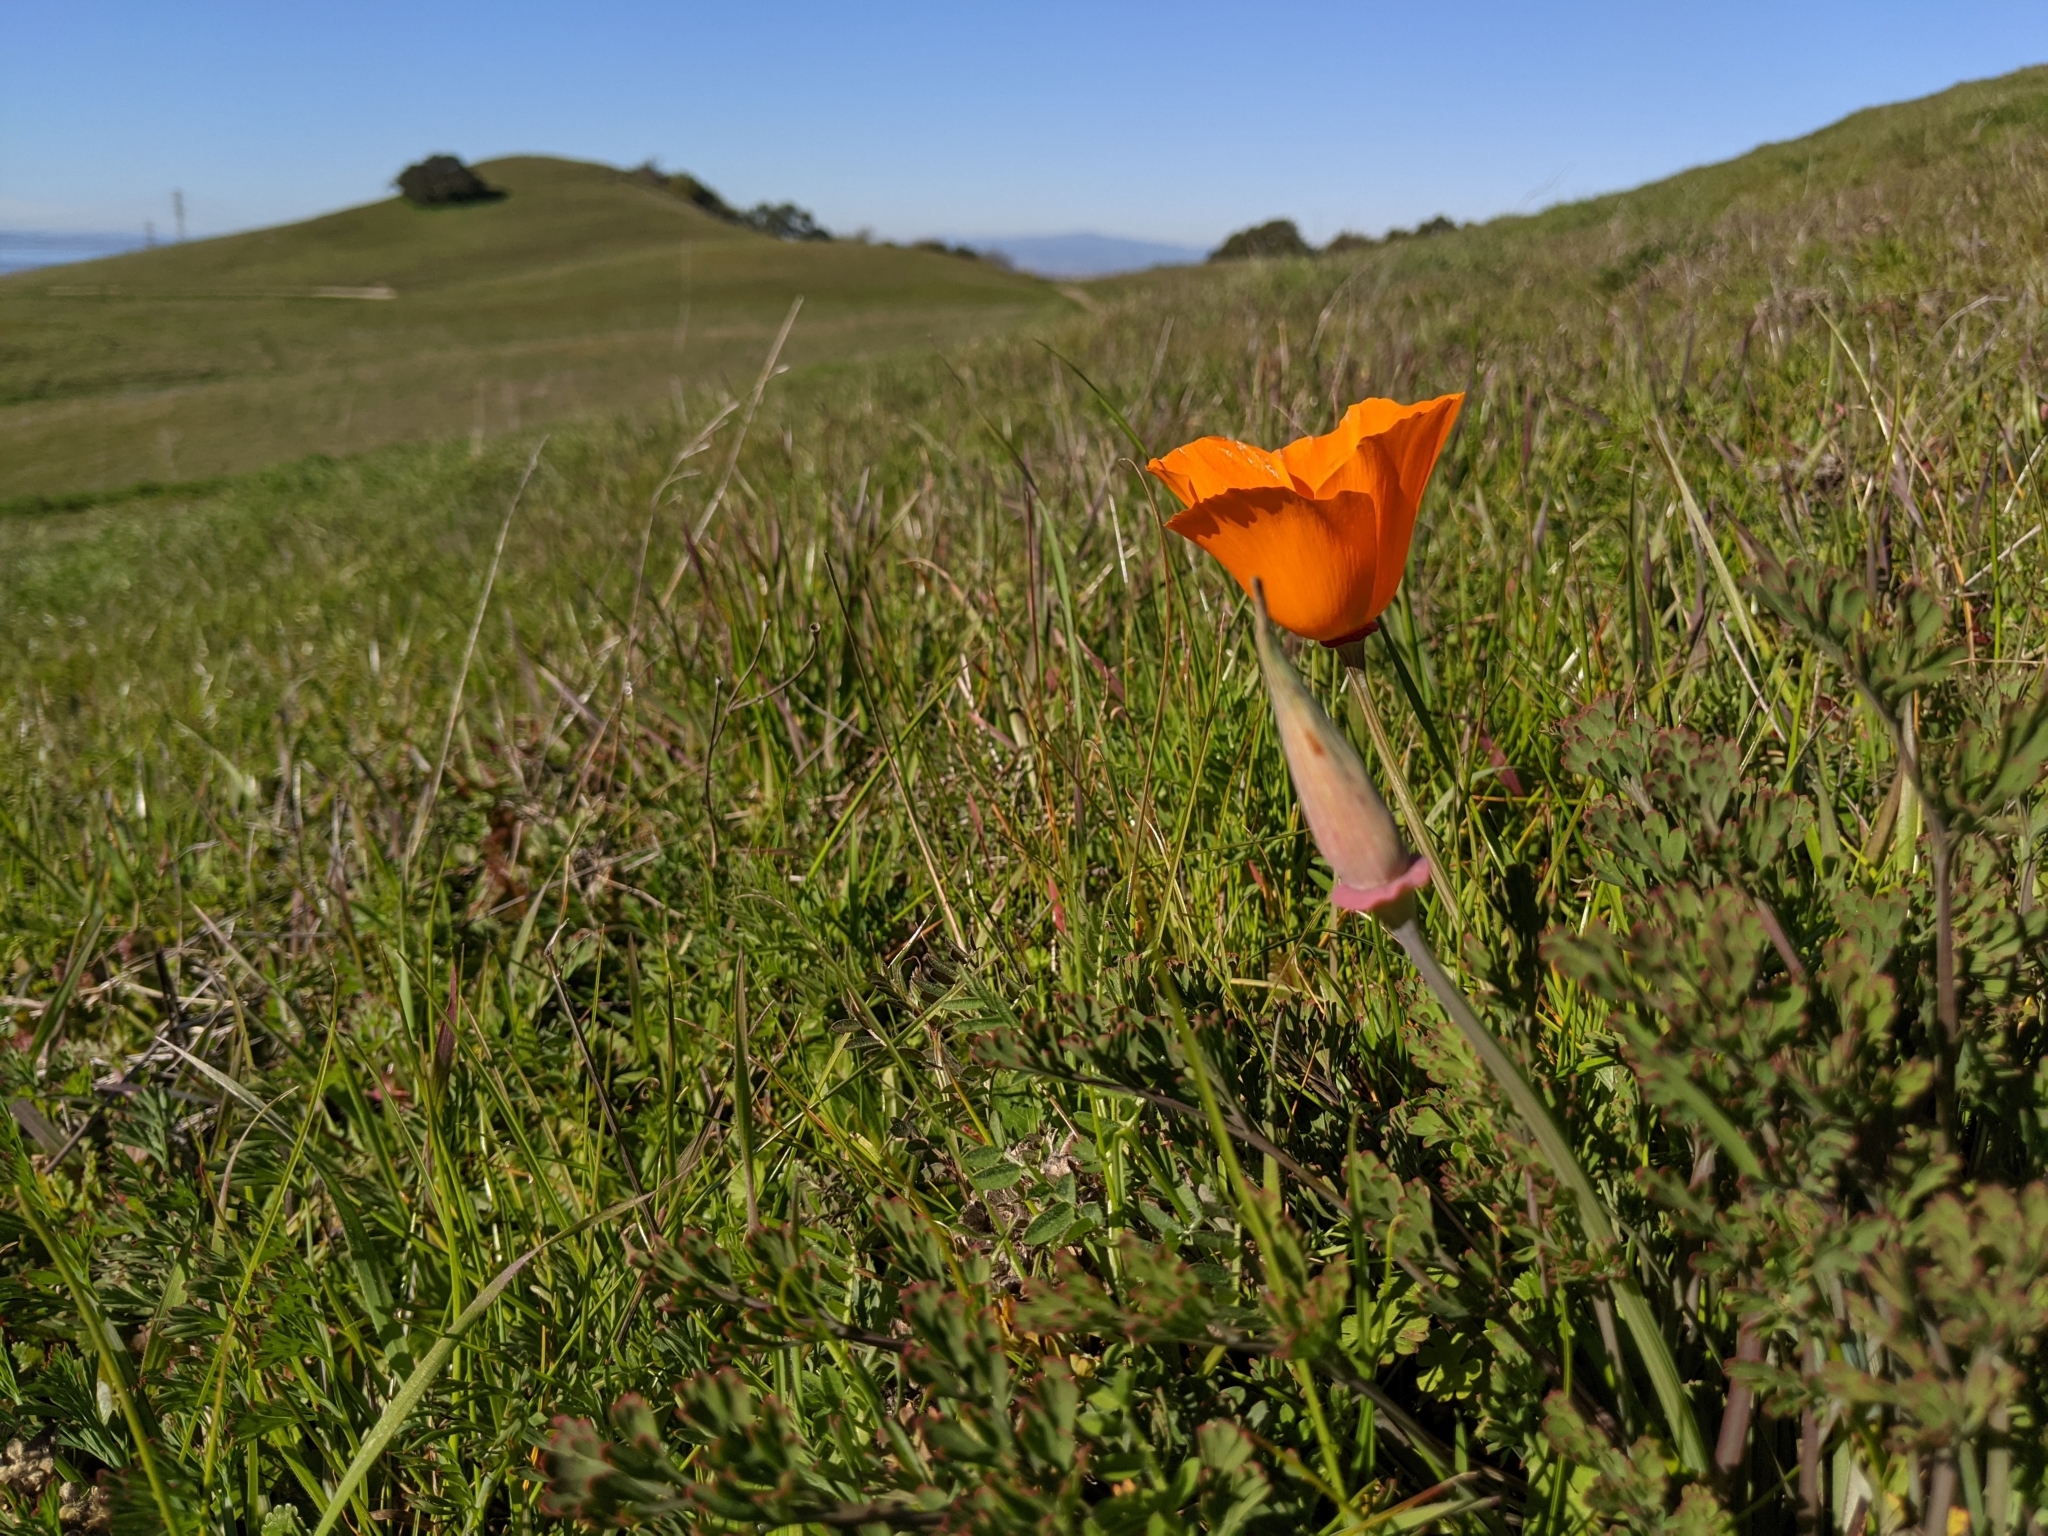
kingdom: Plantae
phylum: Tracheophyta
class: Magnoliopsida
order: Ranunculales
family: Papaveraceae
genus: Eschscholzia
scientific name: Eschscholzia californica
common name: California poppy
